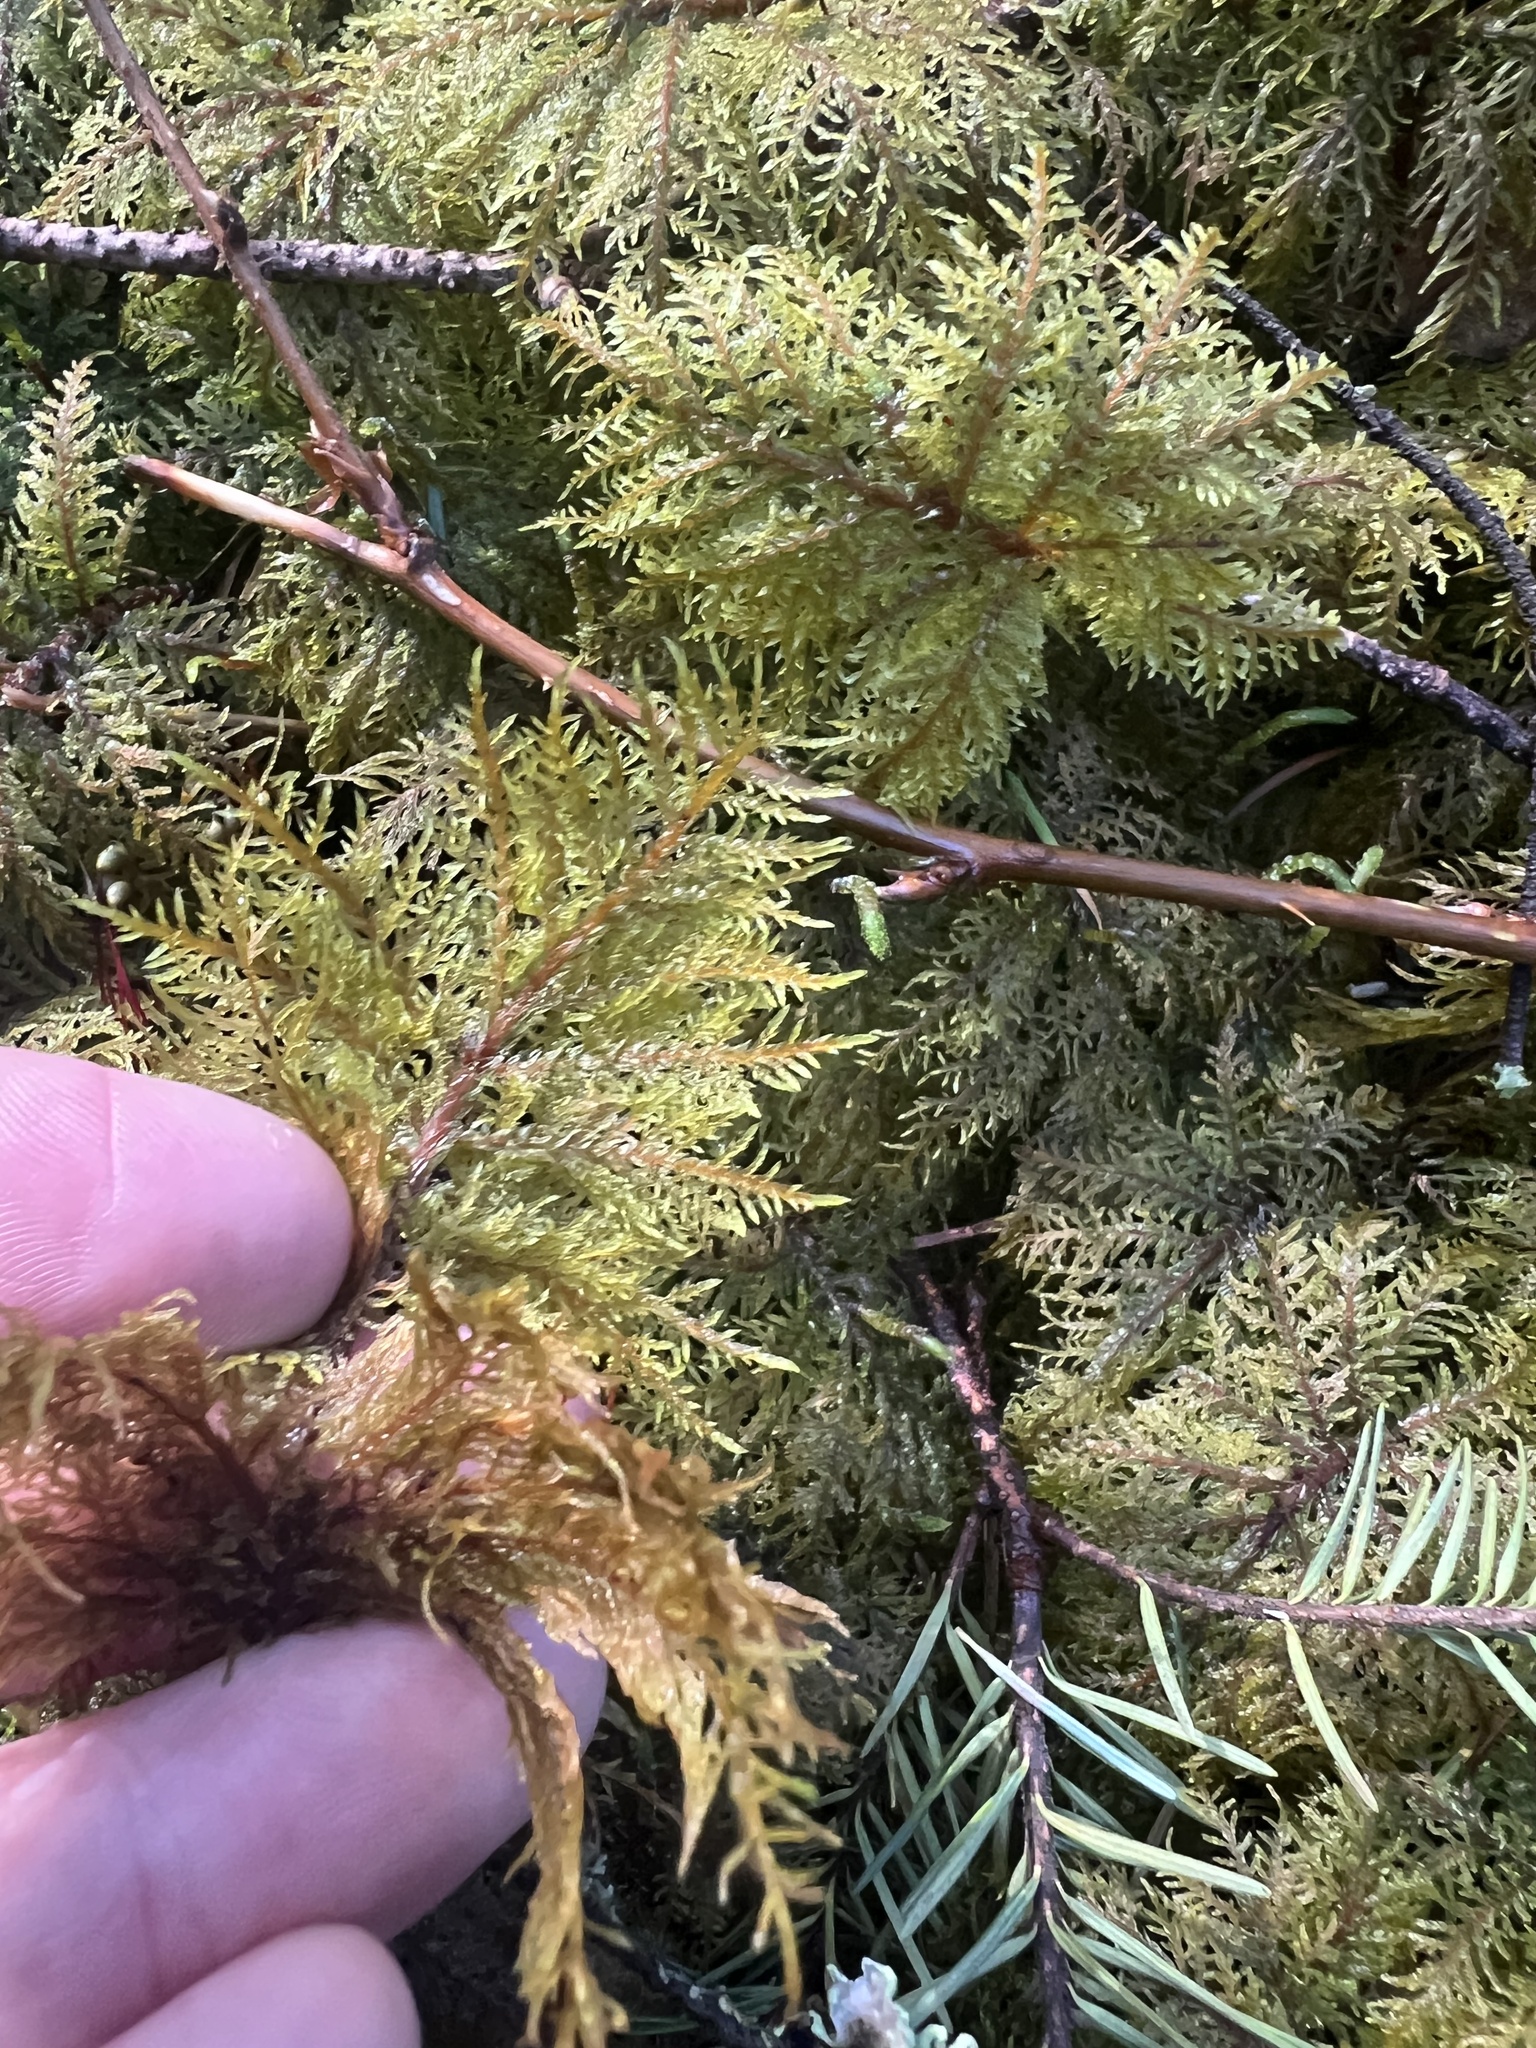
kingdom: Plantae
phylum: Bryophyta
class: Bryopsida
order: Hypnales
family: Hylocomiaceae
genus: Hylocomium
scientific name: Hylocomium splendens
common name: Stairstep moss
